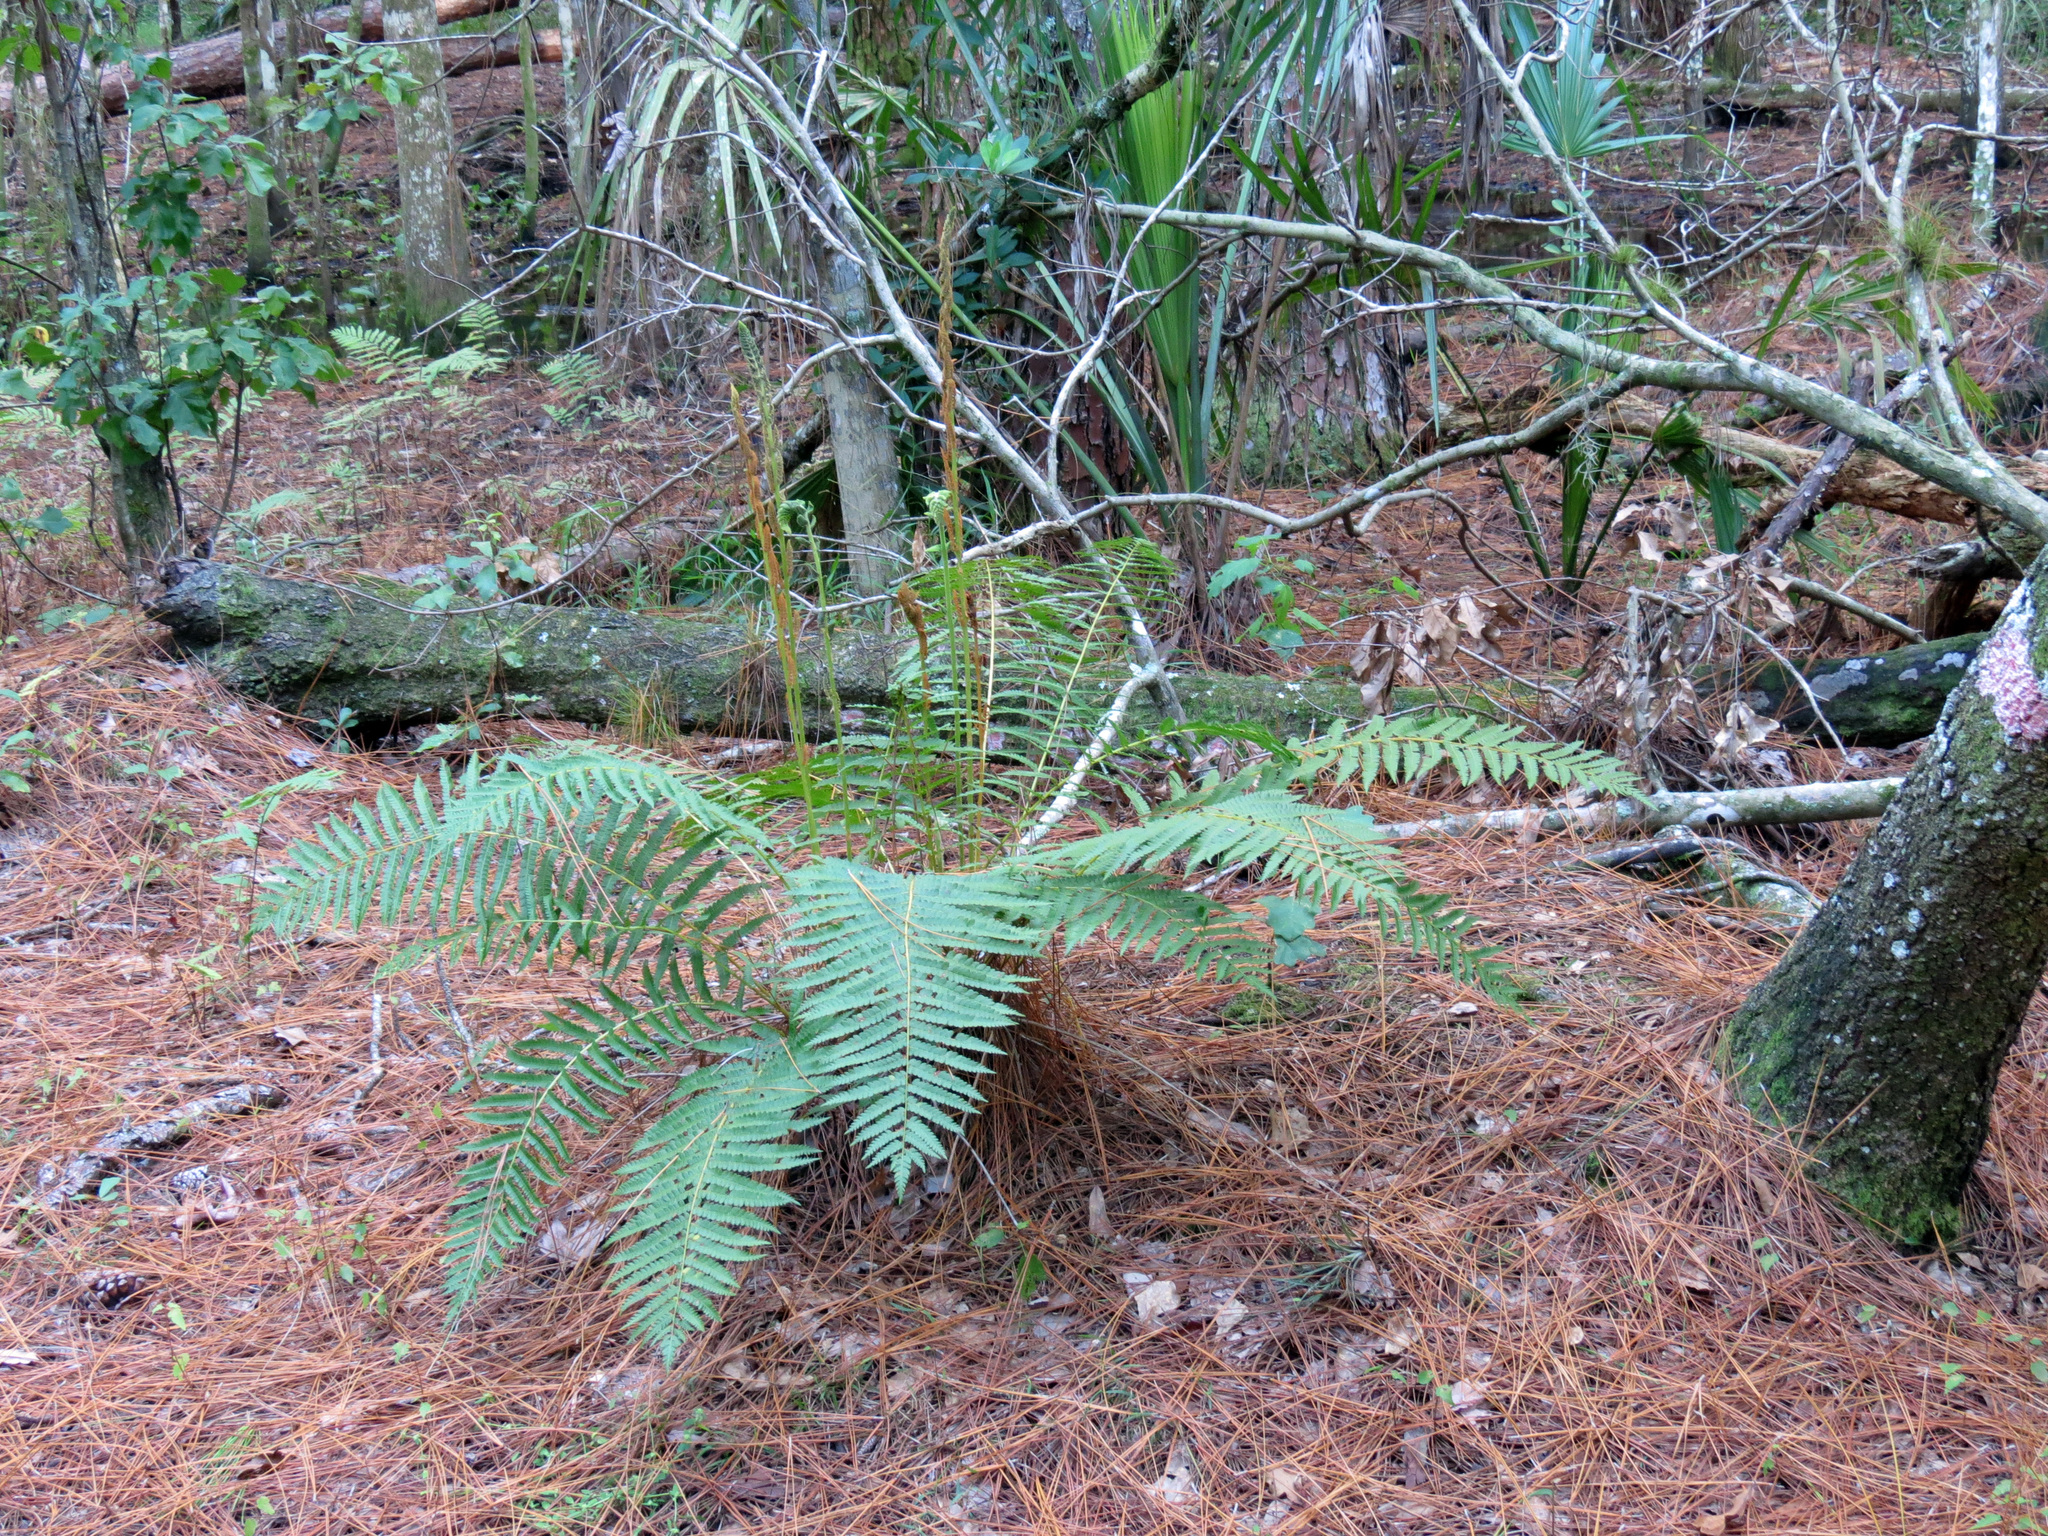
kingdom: Plantae
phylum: Tracheophyta
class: Polypodiopsida
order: Osmundales
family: Osmundaceae
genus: Osmundastrum
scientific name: Osmundastrum cinnamomeum
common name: Cinnamon fern
